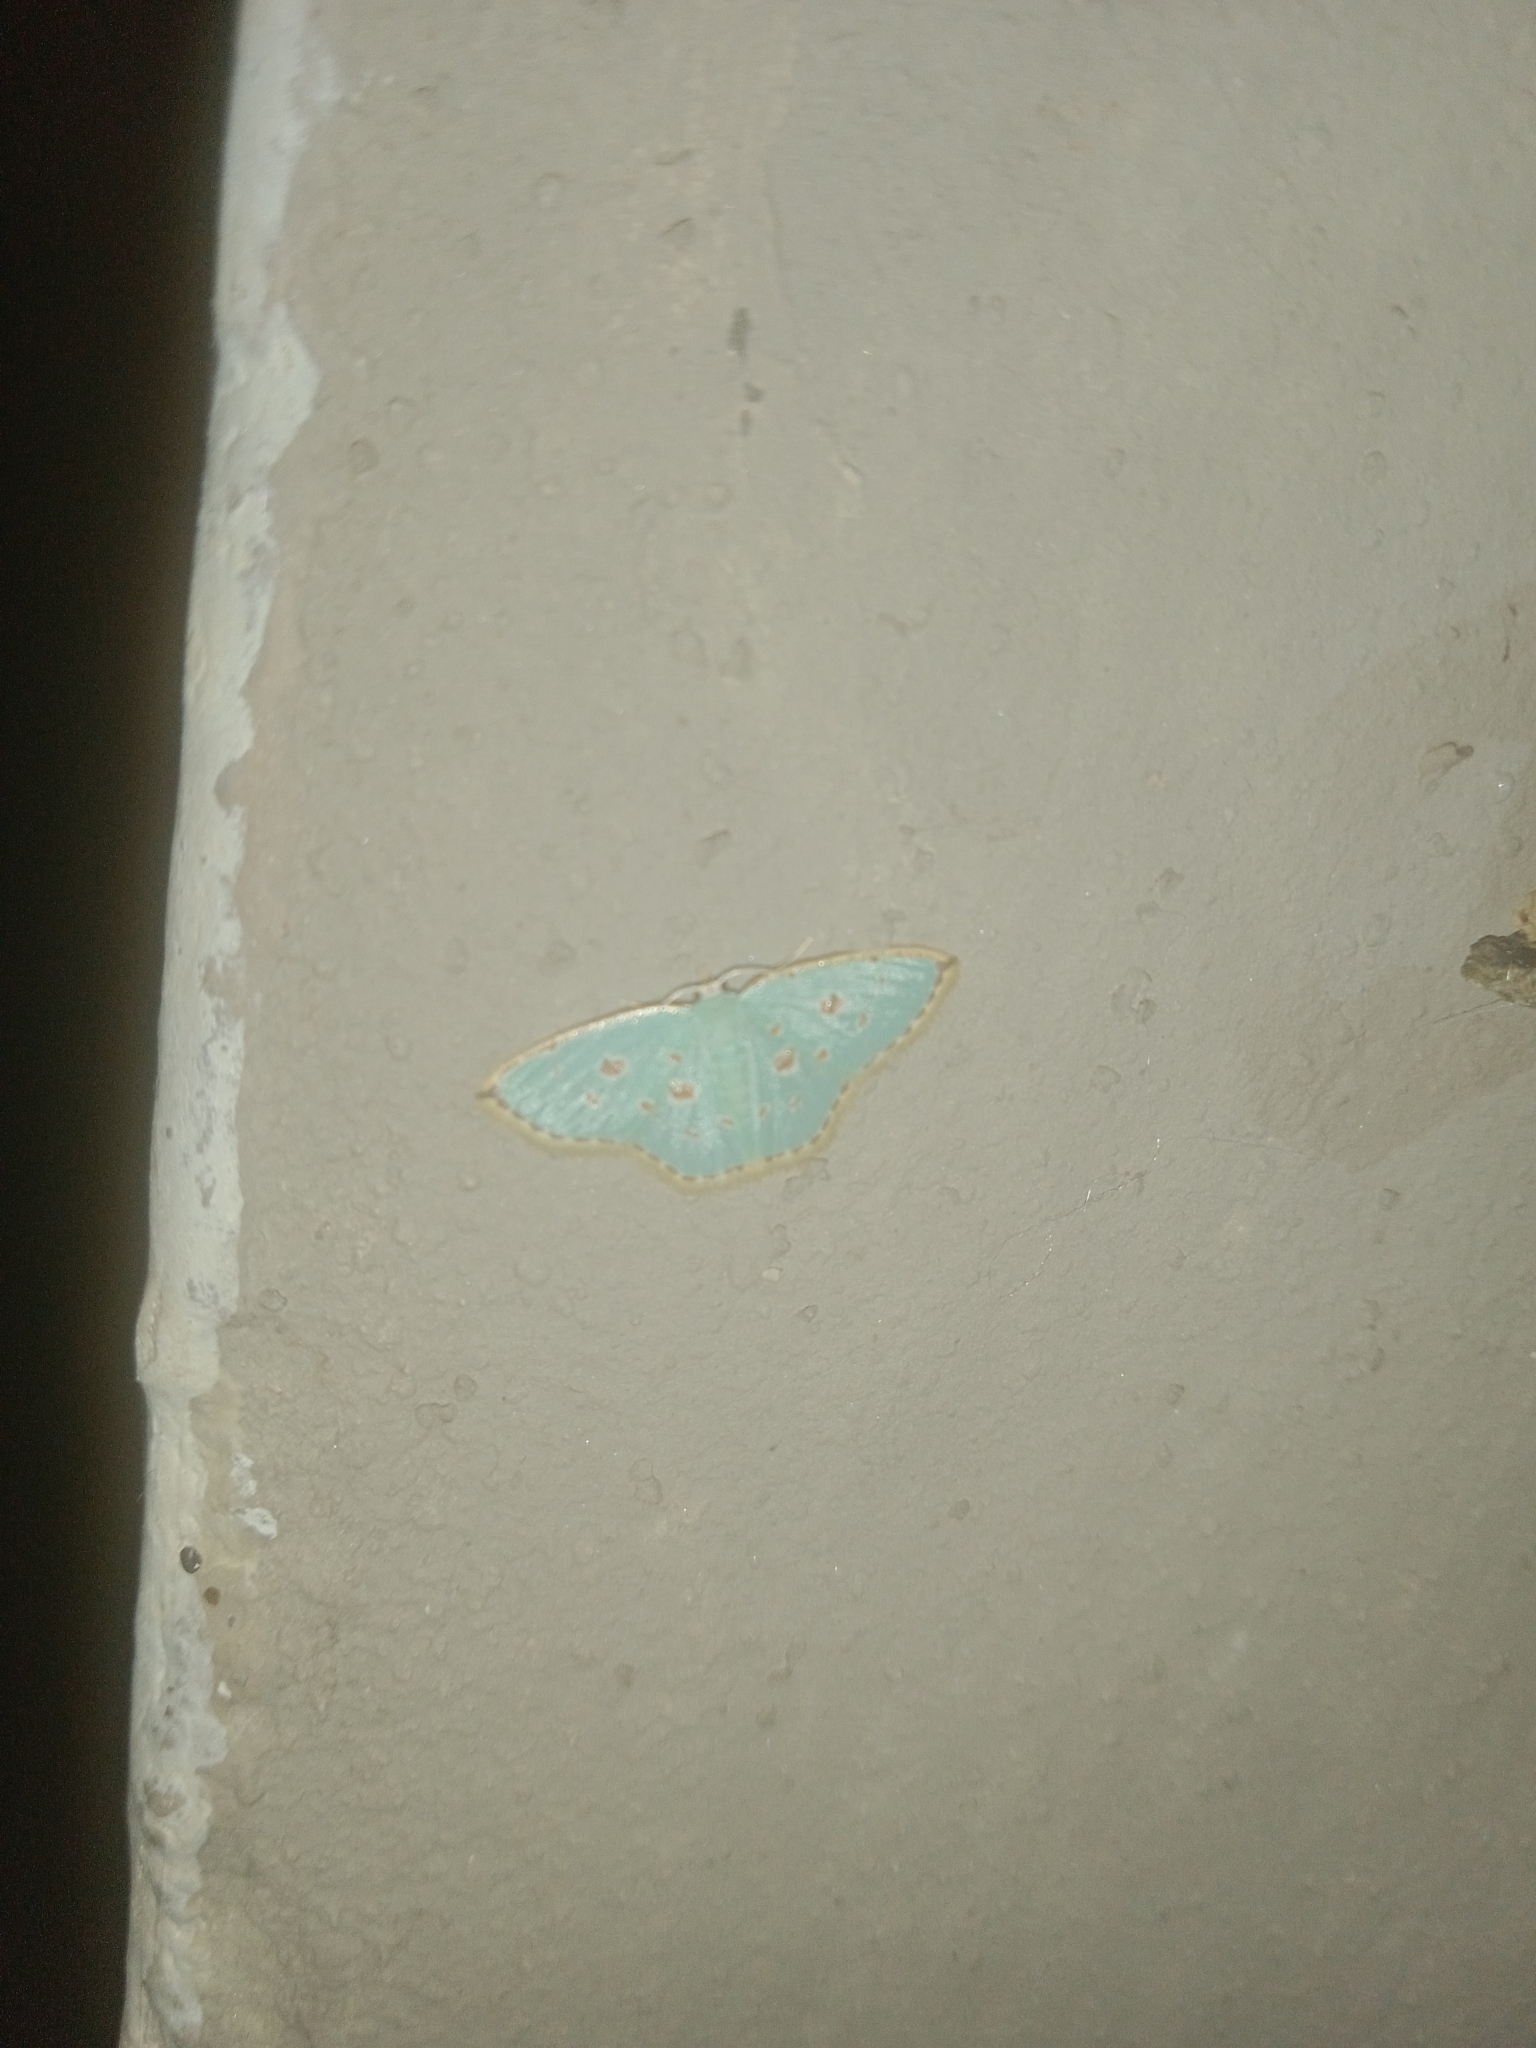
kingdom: Animalia
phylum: Arthropoda
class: Insecta
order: Lepidoptera
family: Geometridae
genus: Comostola
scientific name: Comostola laesaria
